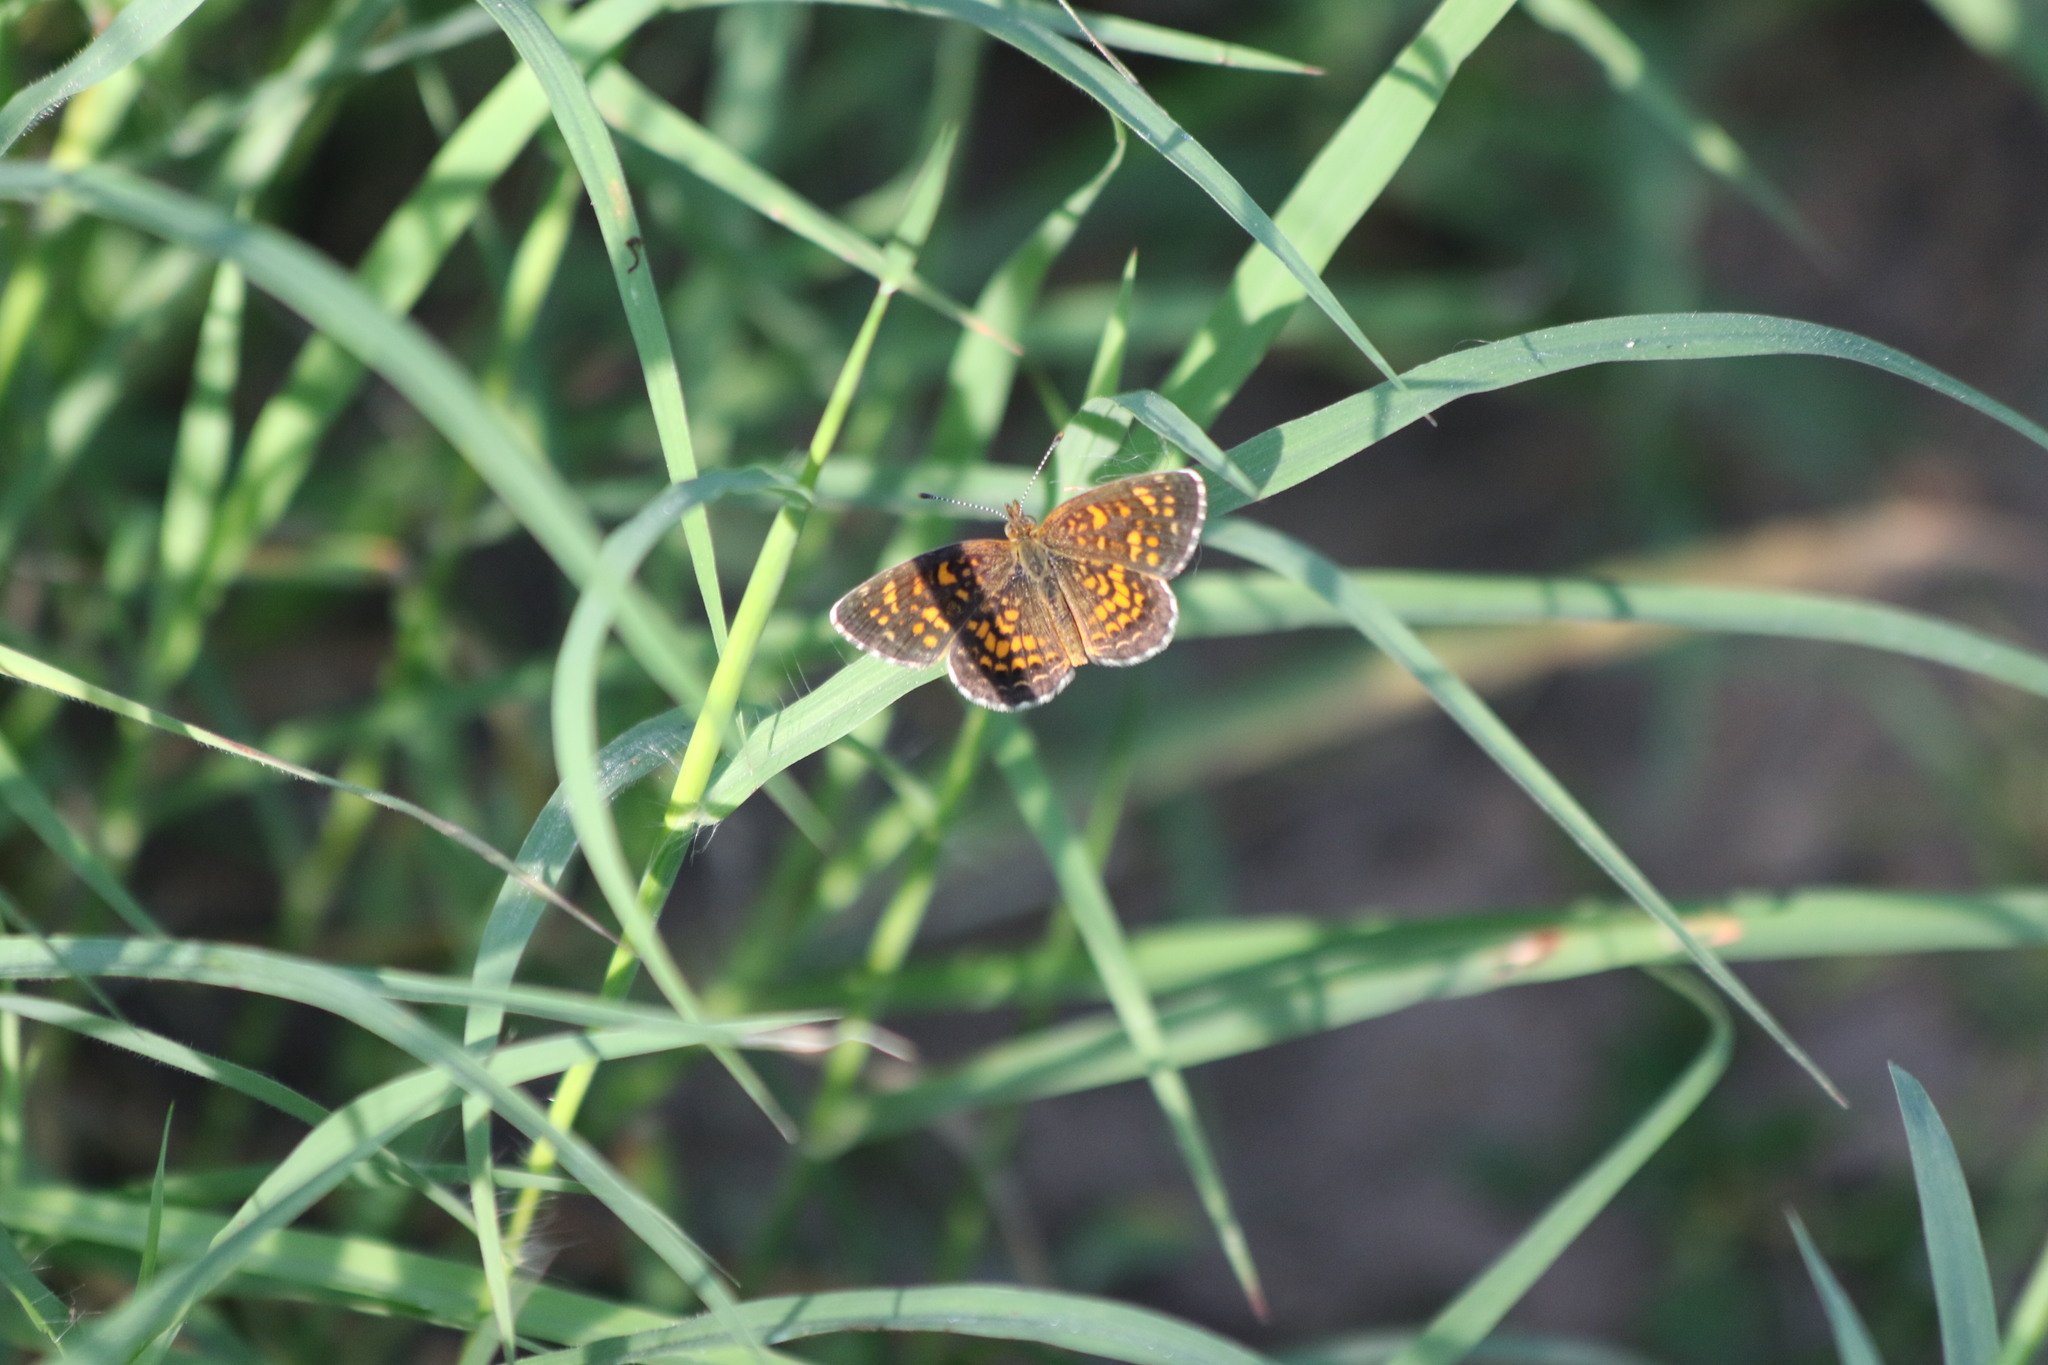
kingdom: Animalia
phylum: Arthropoda
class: Insecta
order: Lepidoptera
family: Nymphalidae
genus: Phyciodes
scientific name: Phyciodes vesta
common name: Vesta crescent
